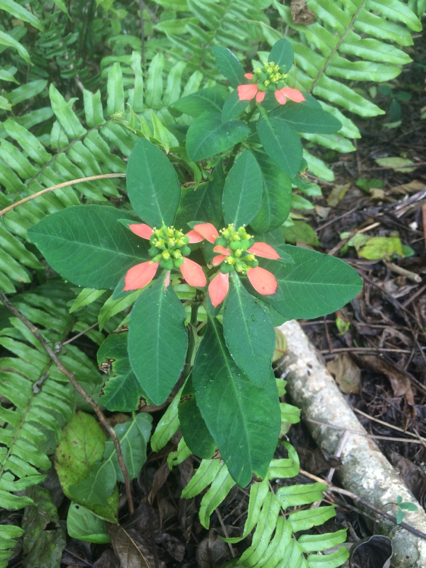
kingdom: Plantae
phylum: Tracheophyta
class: Magnoliopsida
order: Malpighiales
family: Euphorbiaceae
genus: Euphorbia
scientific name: Euphorbia heterophylla
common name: Mexican fireplant
